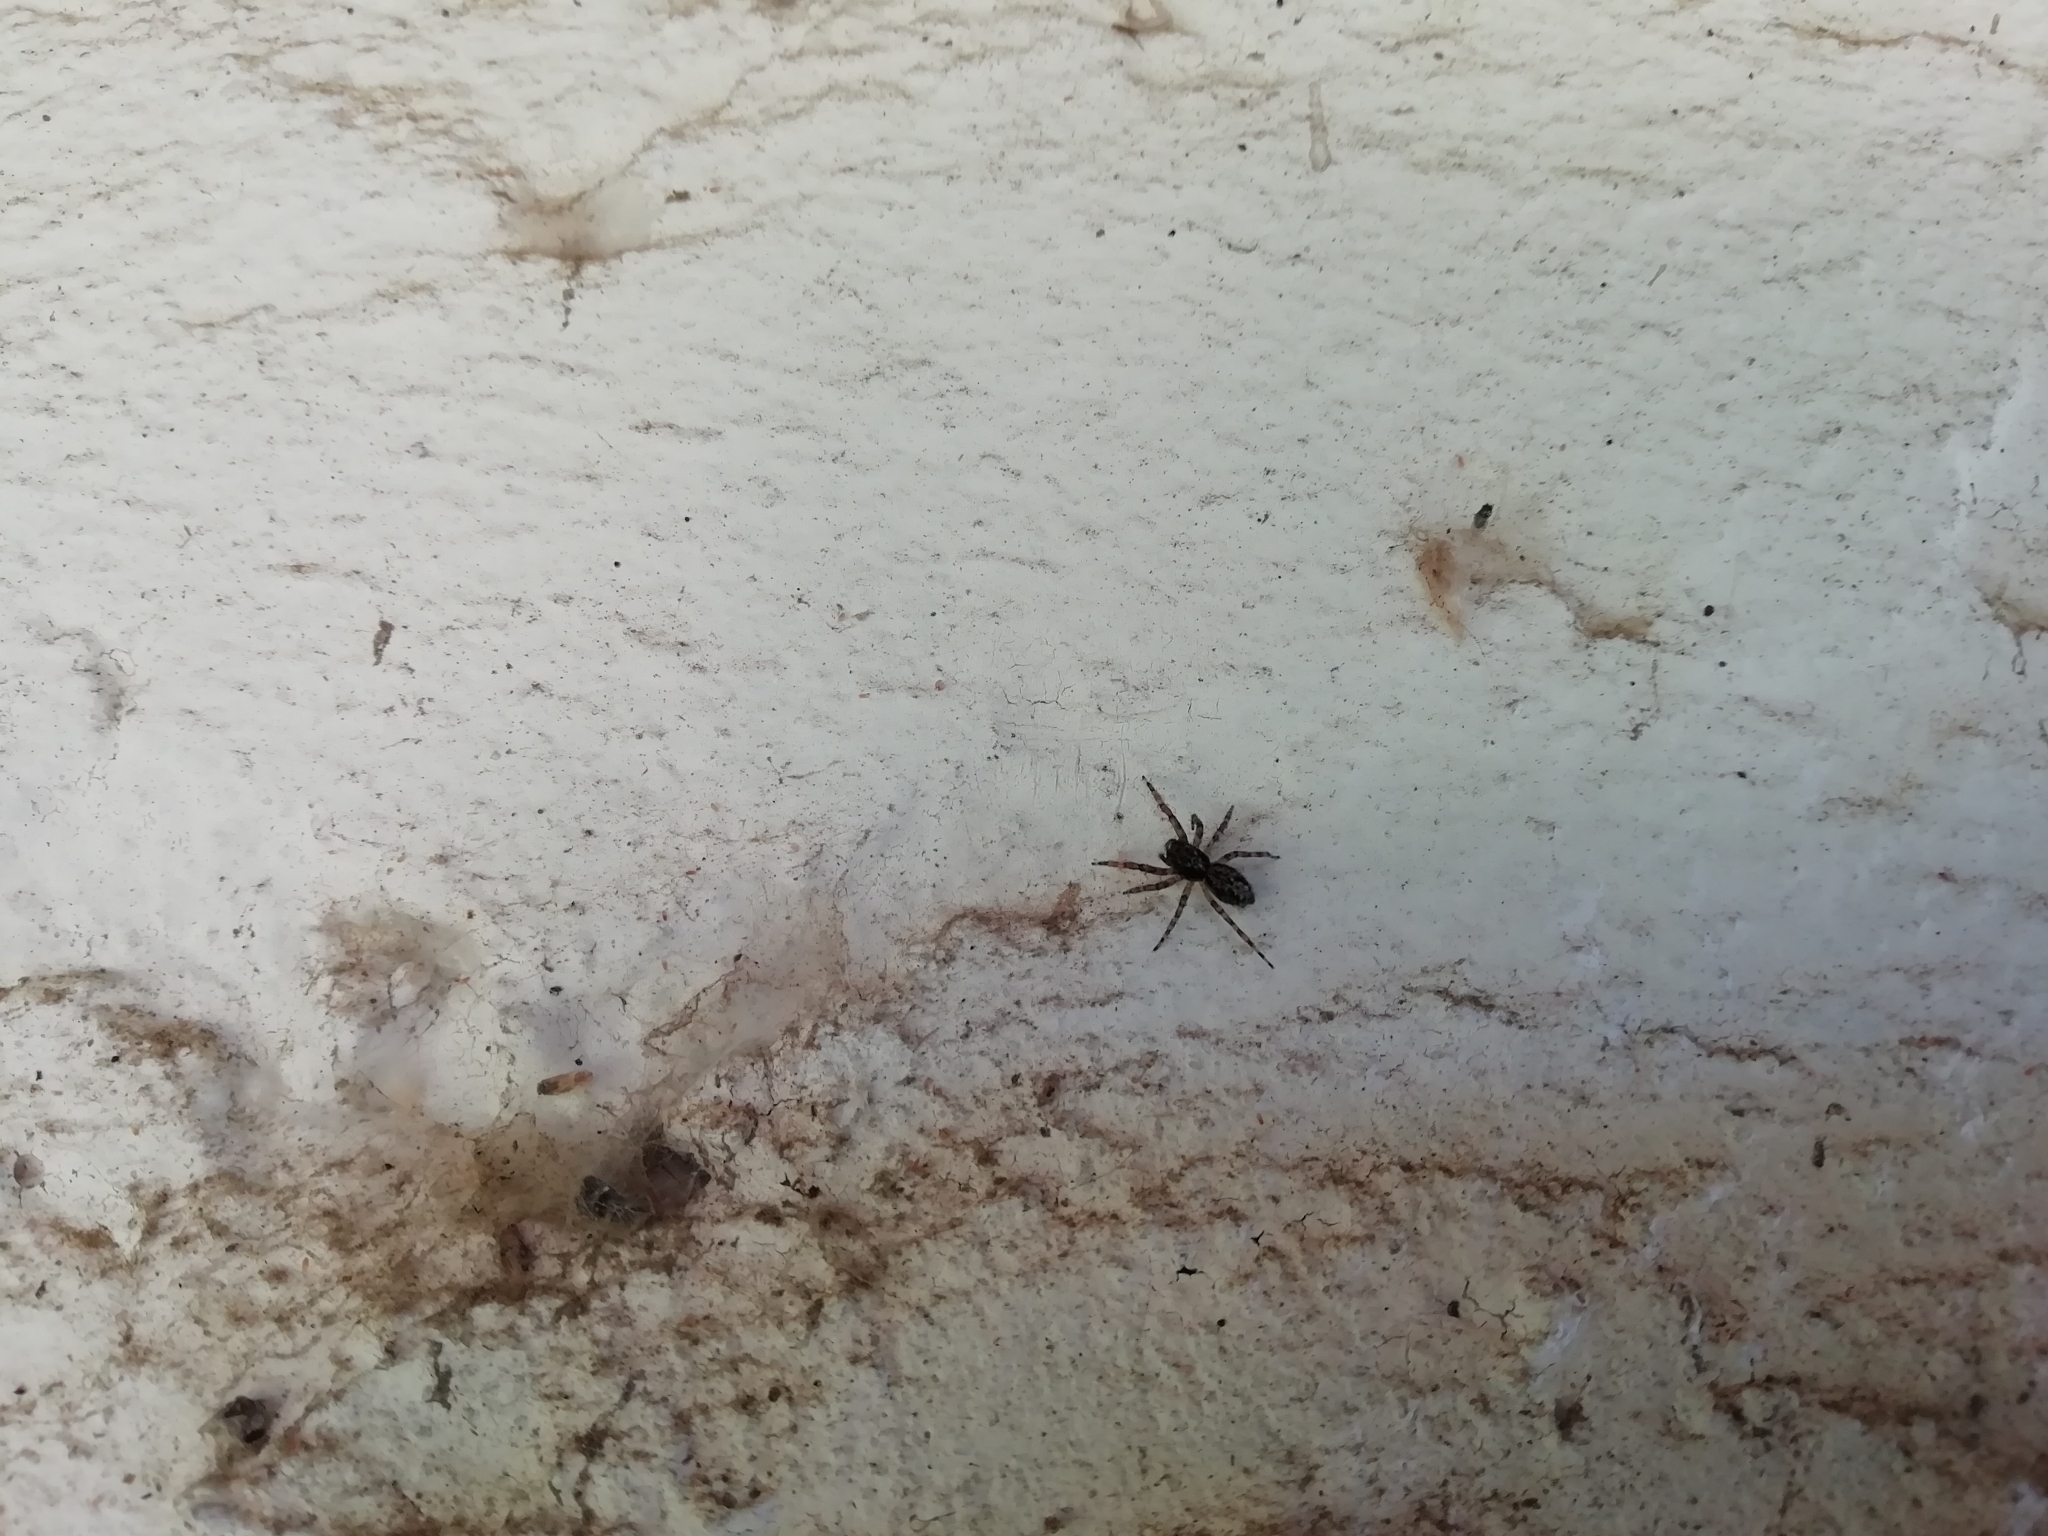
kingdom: Animalia
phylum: Arthropoda
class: Arachnida
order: Araneae
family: Salticidae
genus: Titanattus
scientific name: Titanattus andinus
